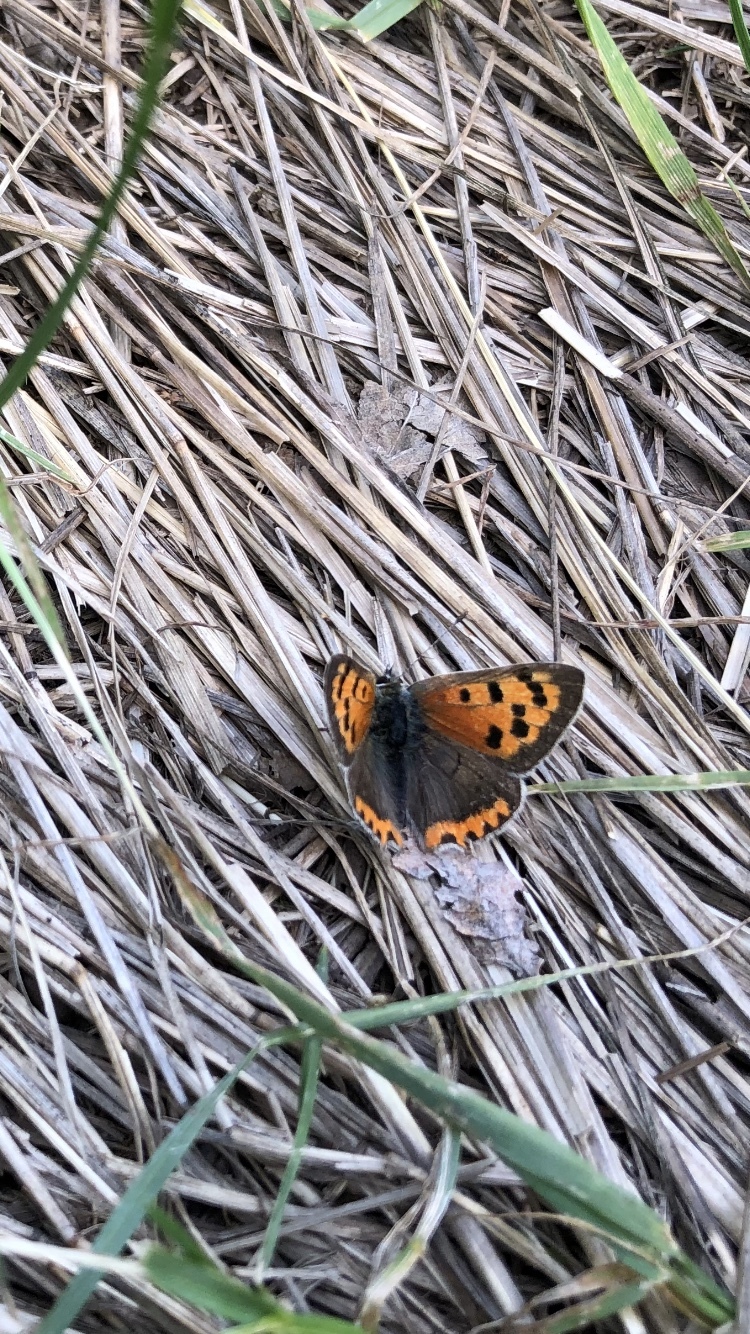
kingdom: Animalia
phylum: Arthropoda
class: Insecta
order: Lepidoptera
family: Lycaenidae
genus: Lycaena
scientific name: Lycaena phlaeas
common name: Small copper
